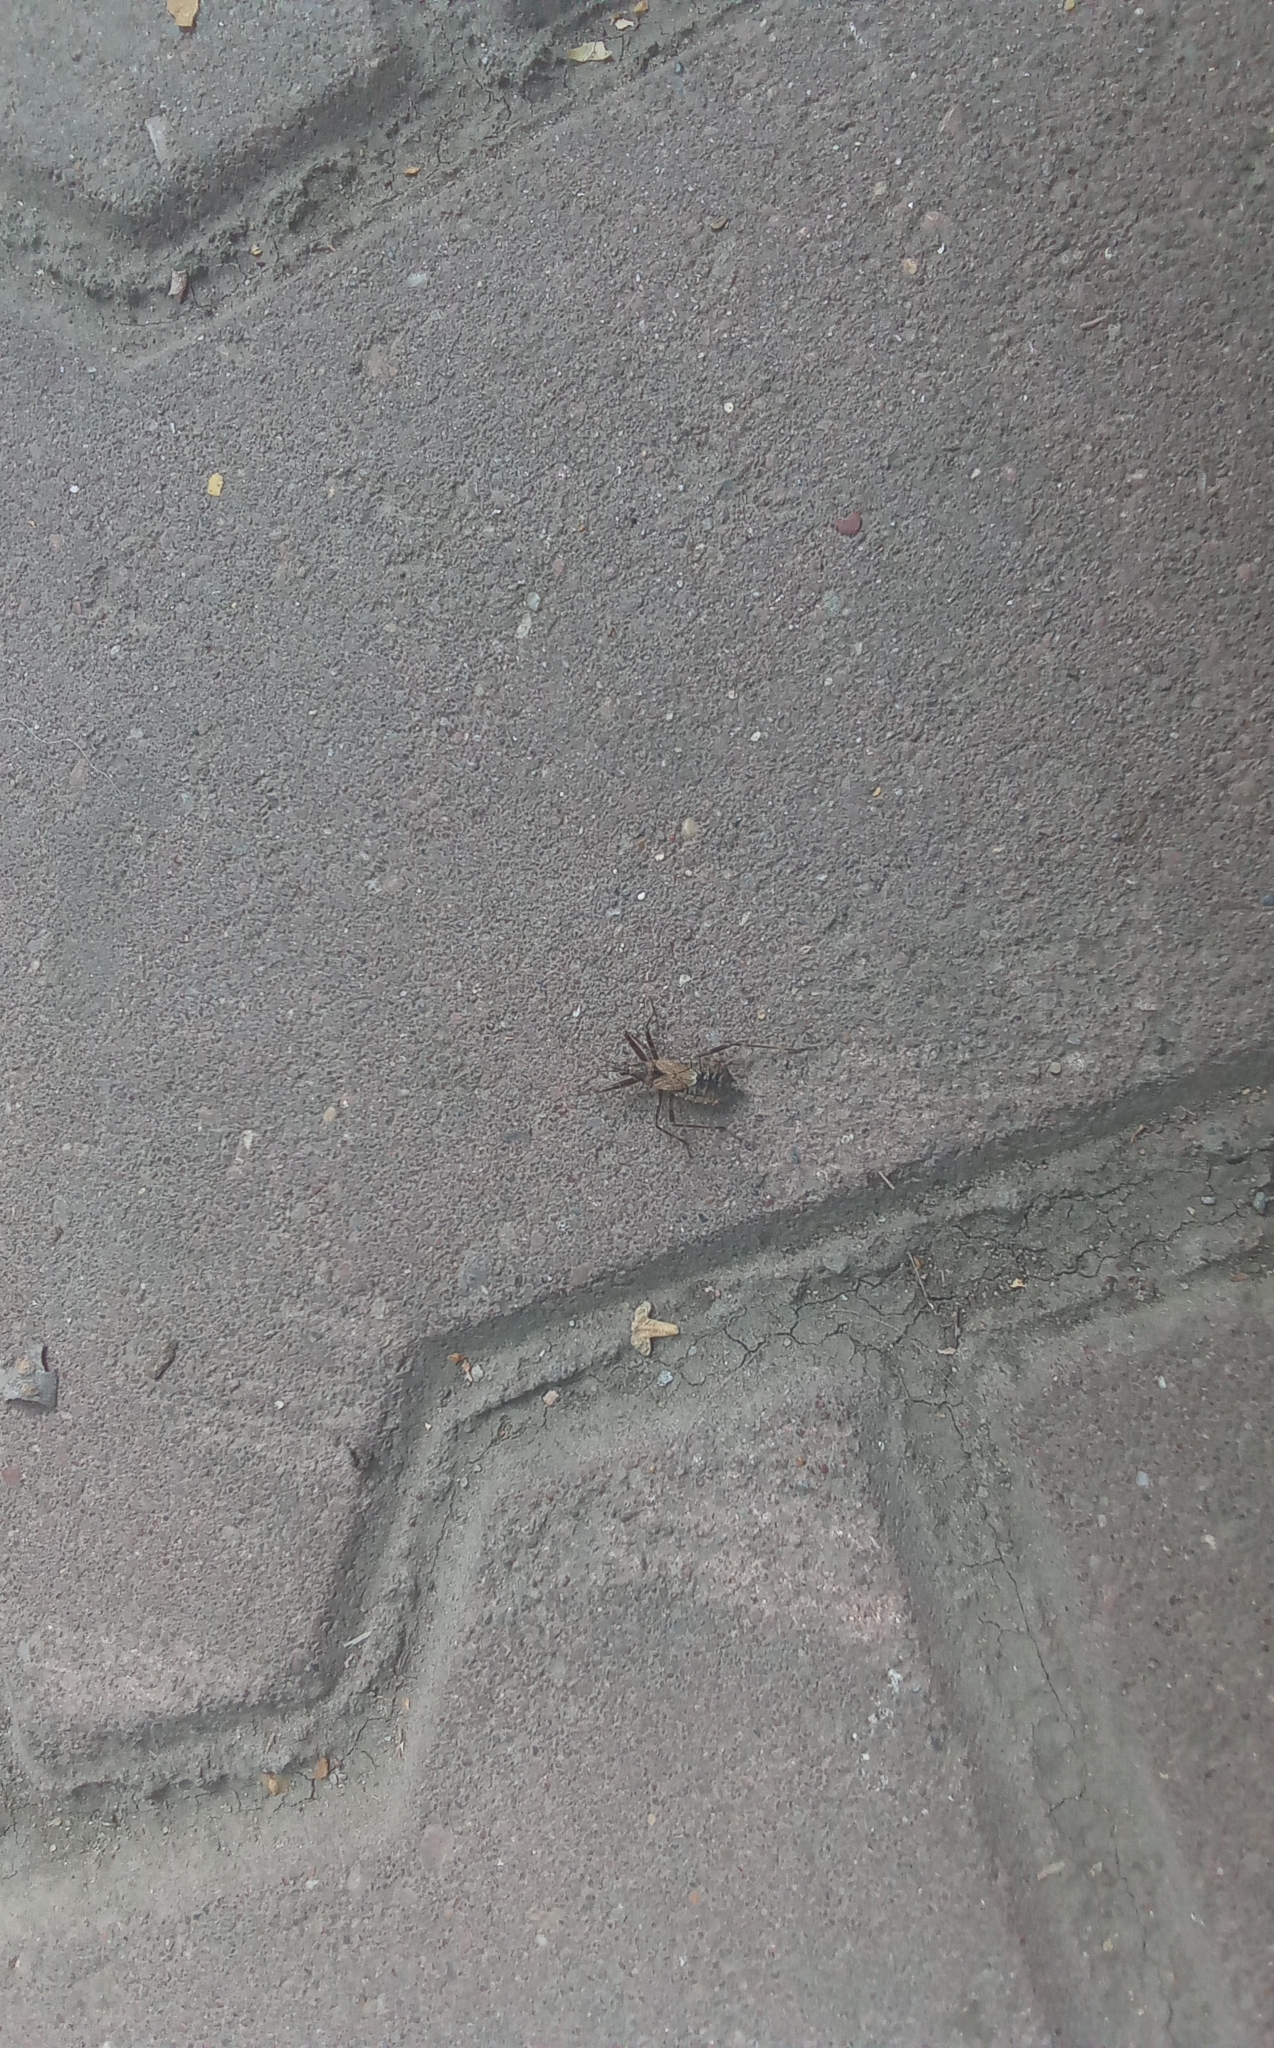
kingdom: Animalia
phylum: Arthropoda
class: Insecta
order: Hemiptera
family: Nabidae
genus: Himacerus
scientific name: Himacerus apterus
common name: Tree damsel bug
